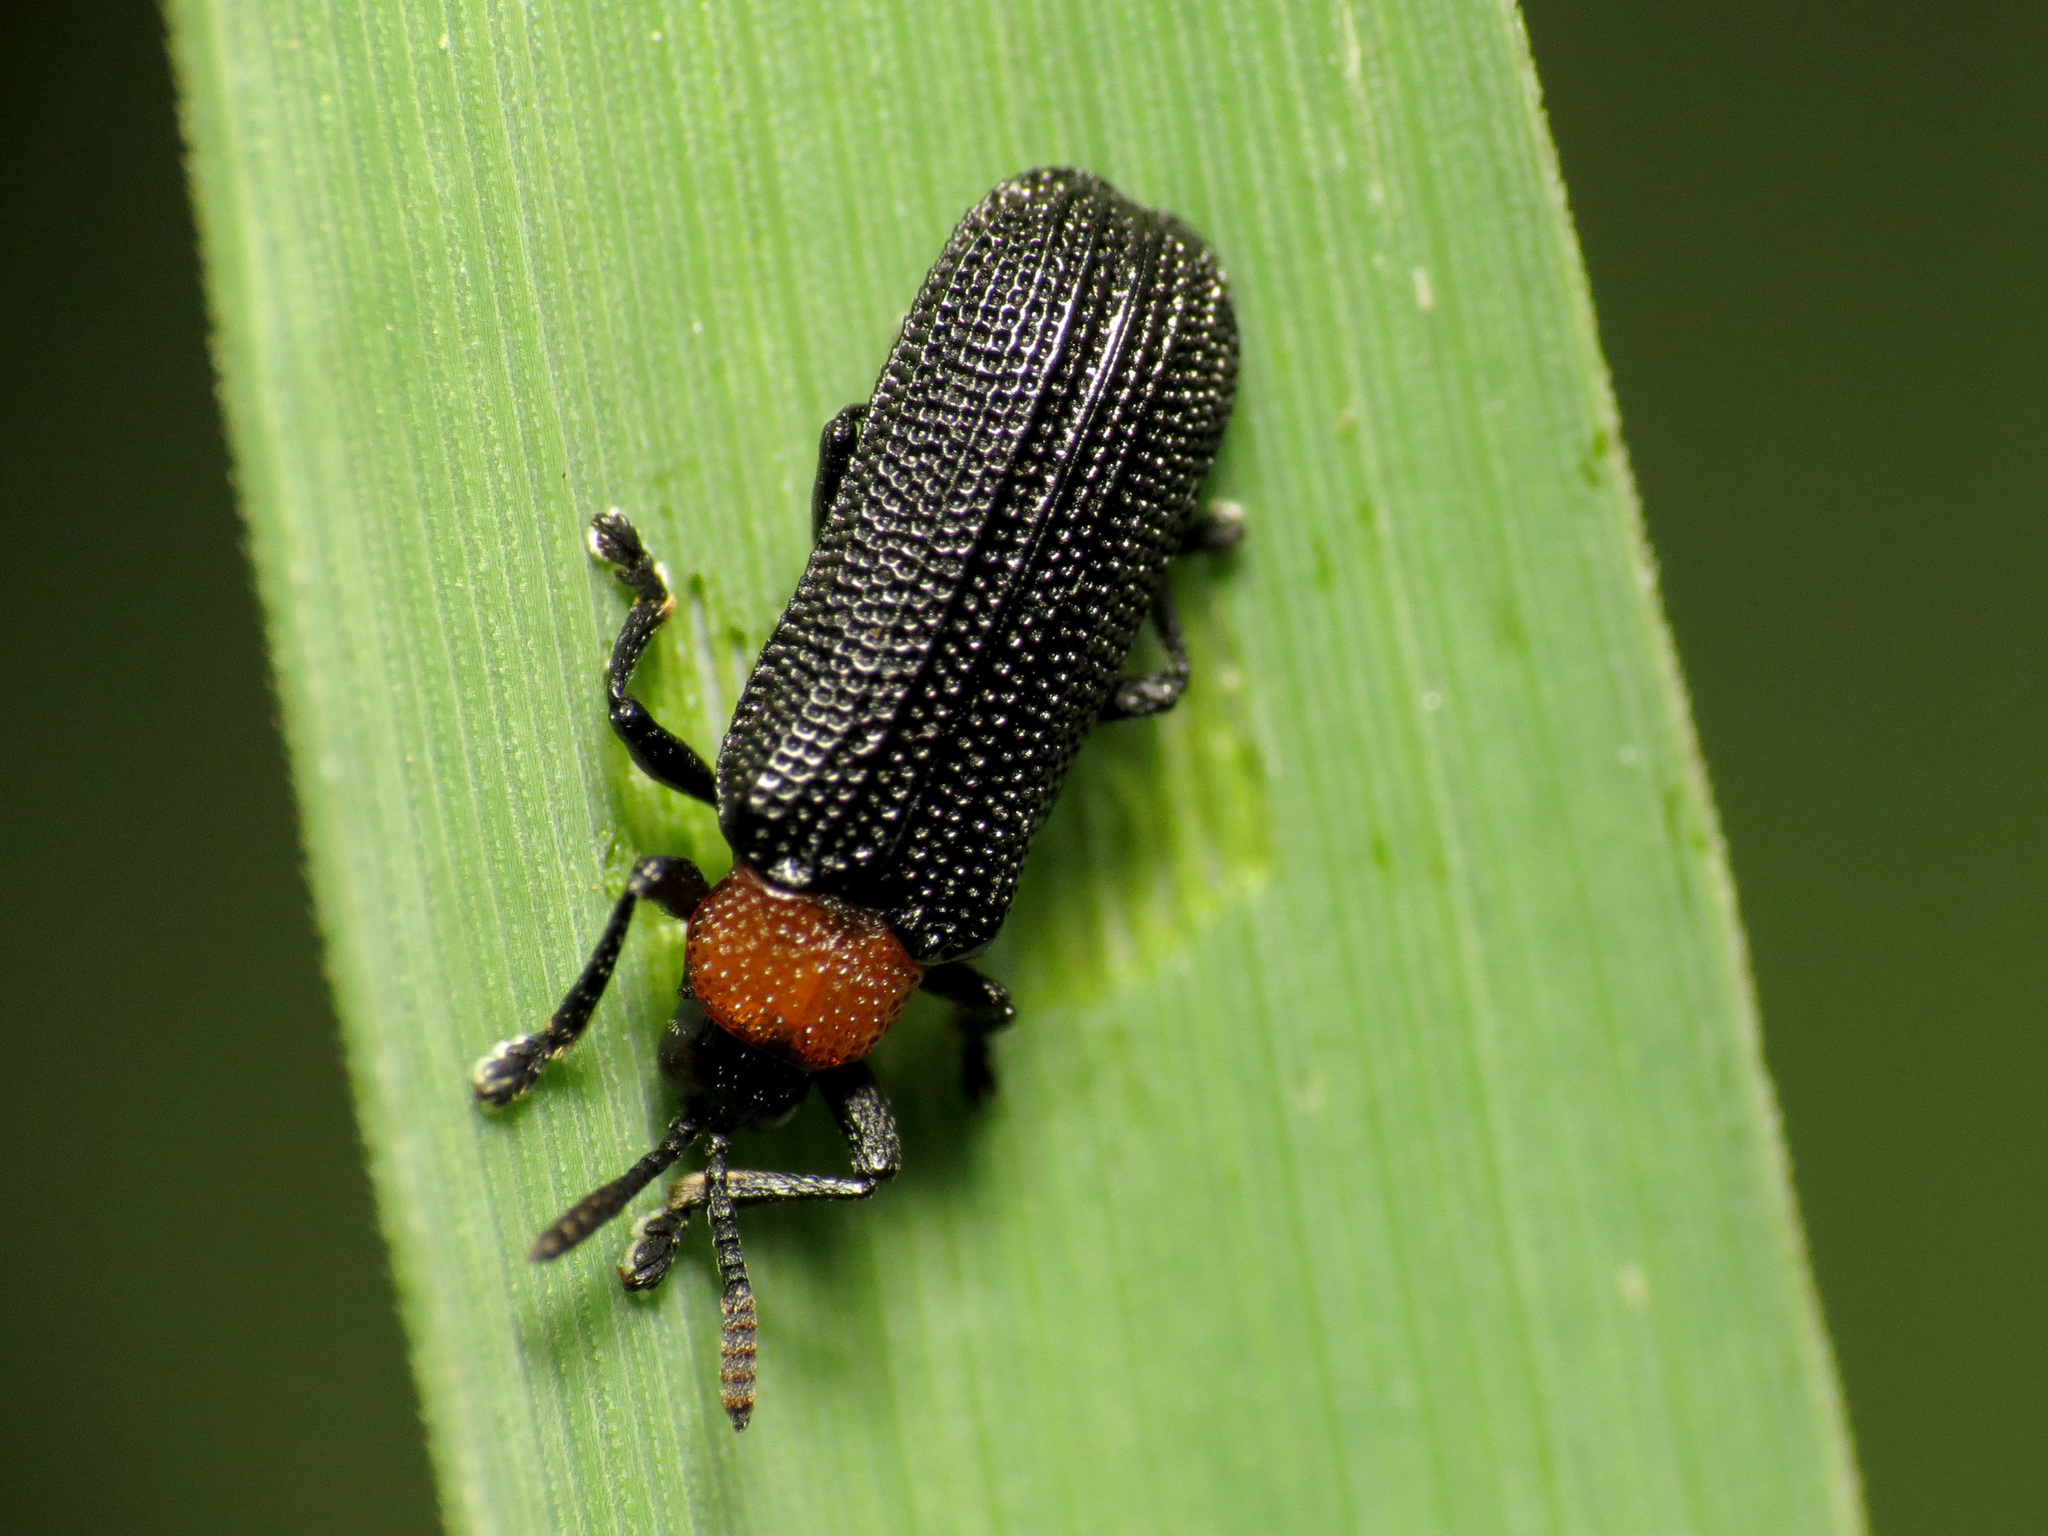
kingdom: Animalia
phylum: Arthropoda
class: Insecta
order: Coleoptera
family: Chrysomelidae
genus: Chalepus
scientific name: Chalepus walshii
